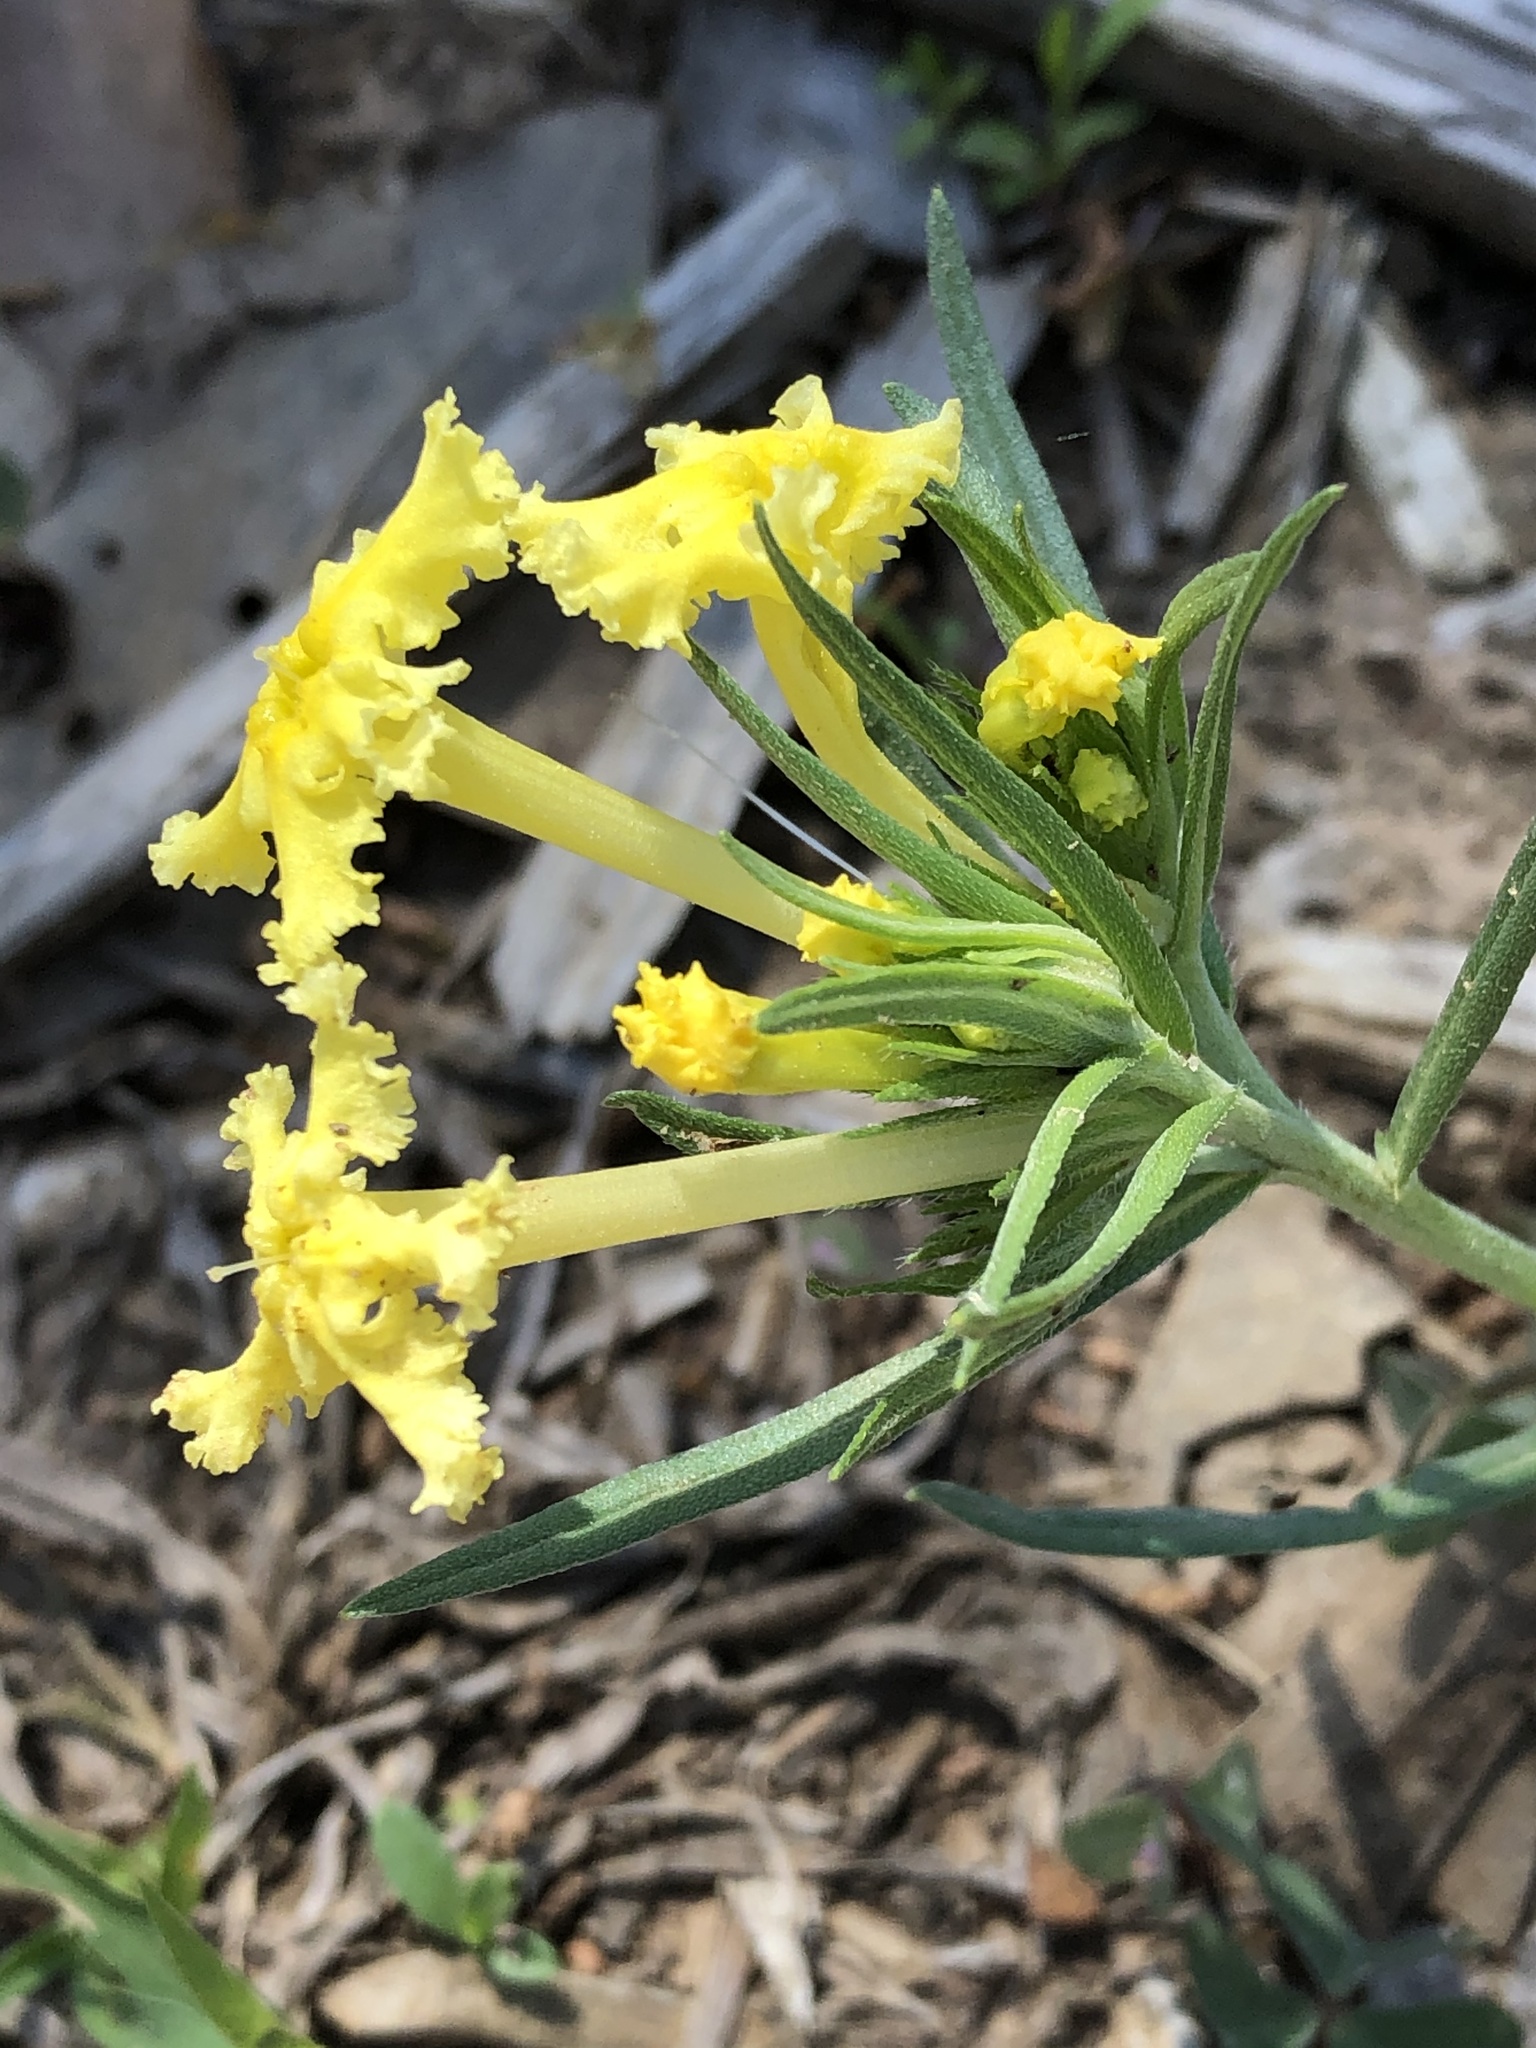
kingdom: Plantae
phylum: Tracheophyta
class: Magnoliopsida
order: Boraginales
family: Boraginaceae
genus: Lithospermum
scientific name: Lithospermum incisum
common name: Fringed gromwell
